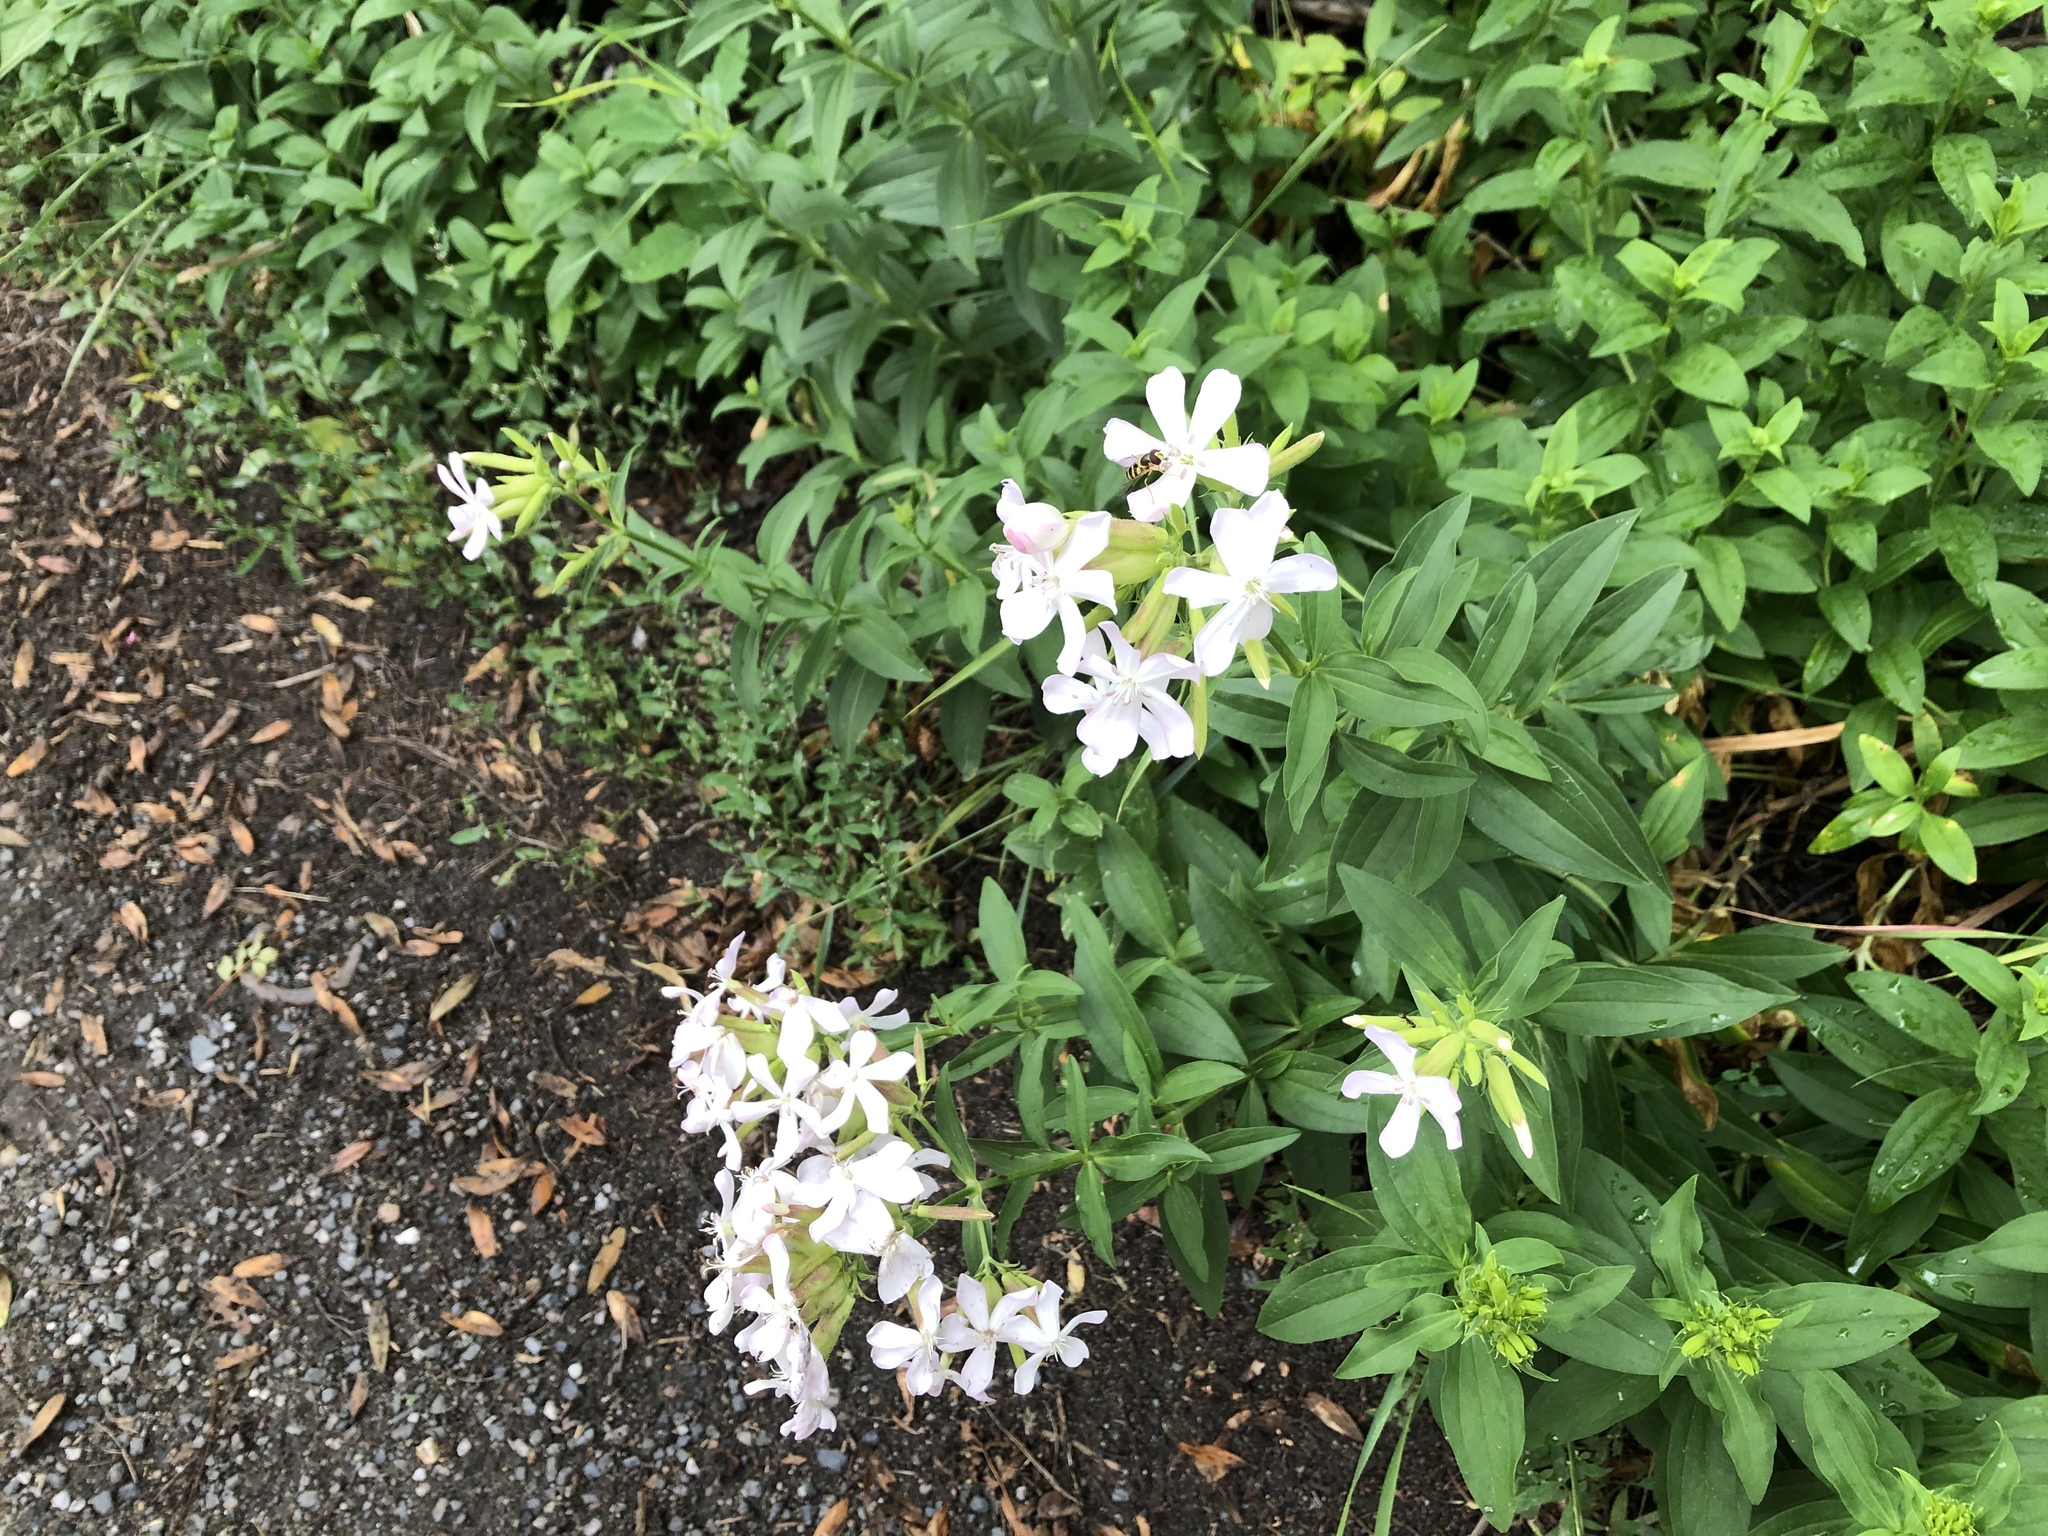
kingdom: Plantae
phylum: Tracheophyta
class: Magnoliopsida
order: Caryophyllales
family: Caryophyllaceae
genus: Saponaria
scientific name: Saponaria officinalis
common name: Soapwort
